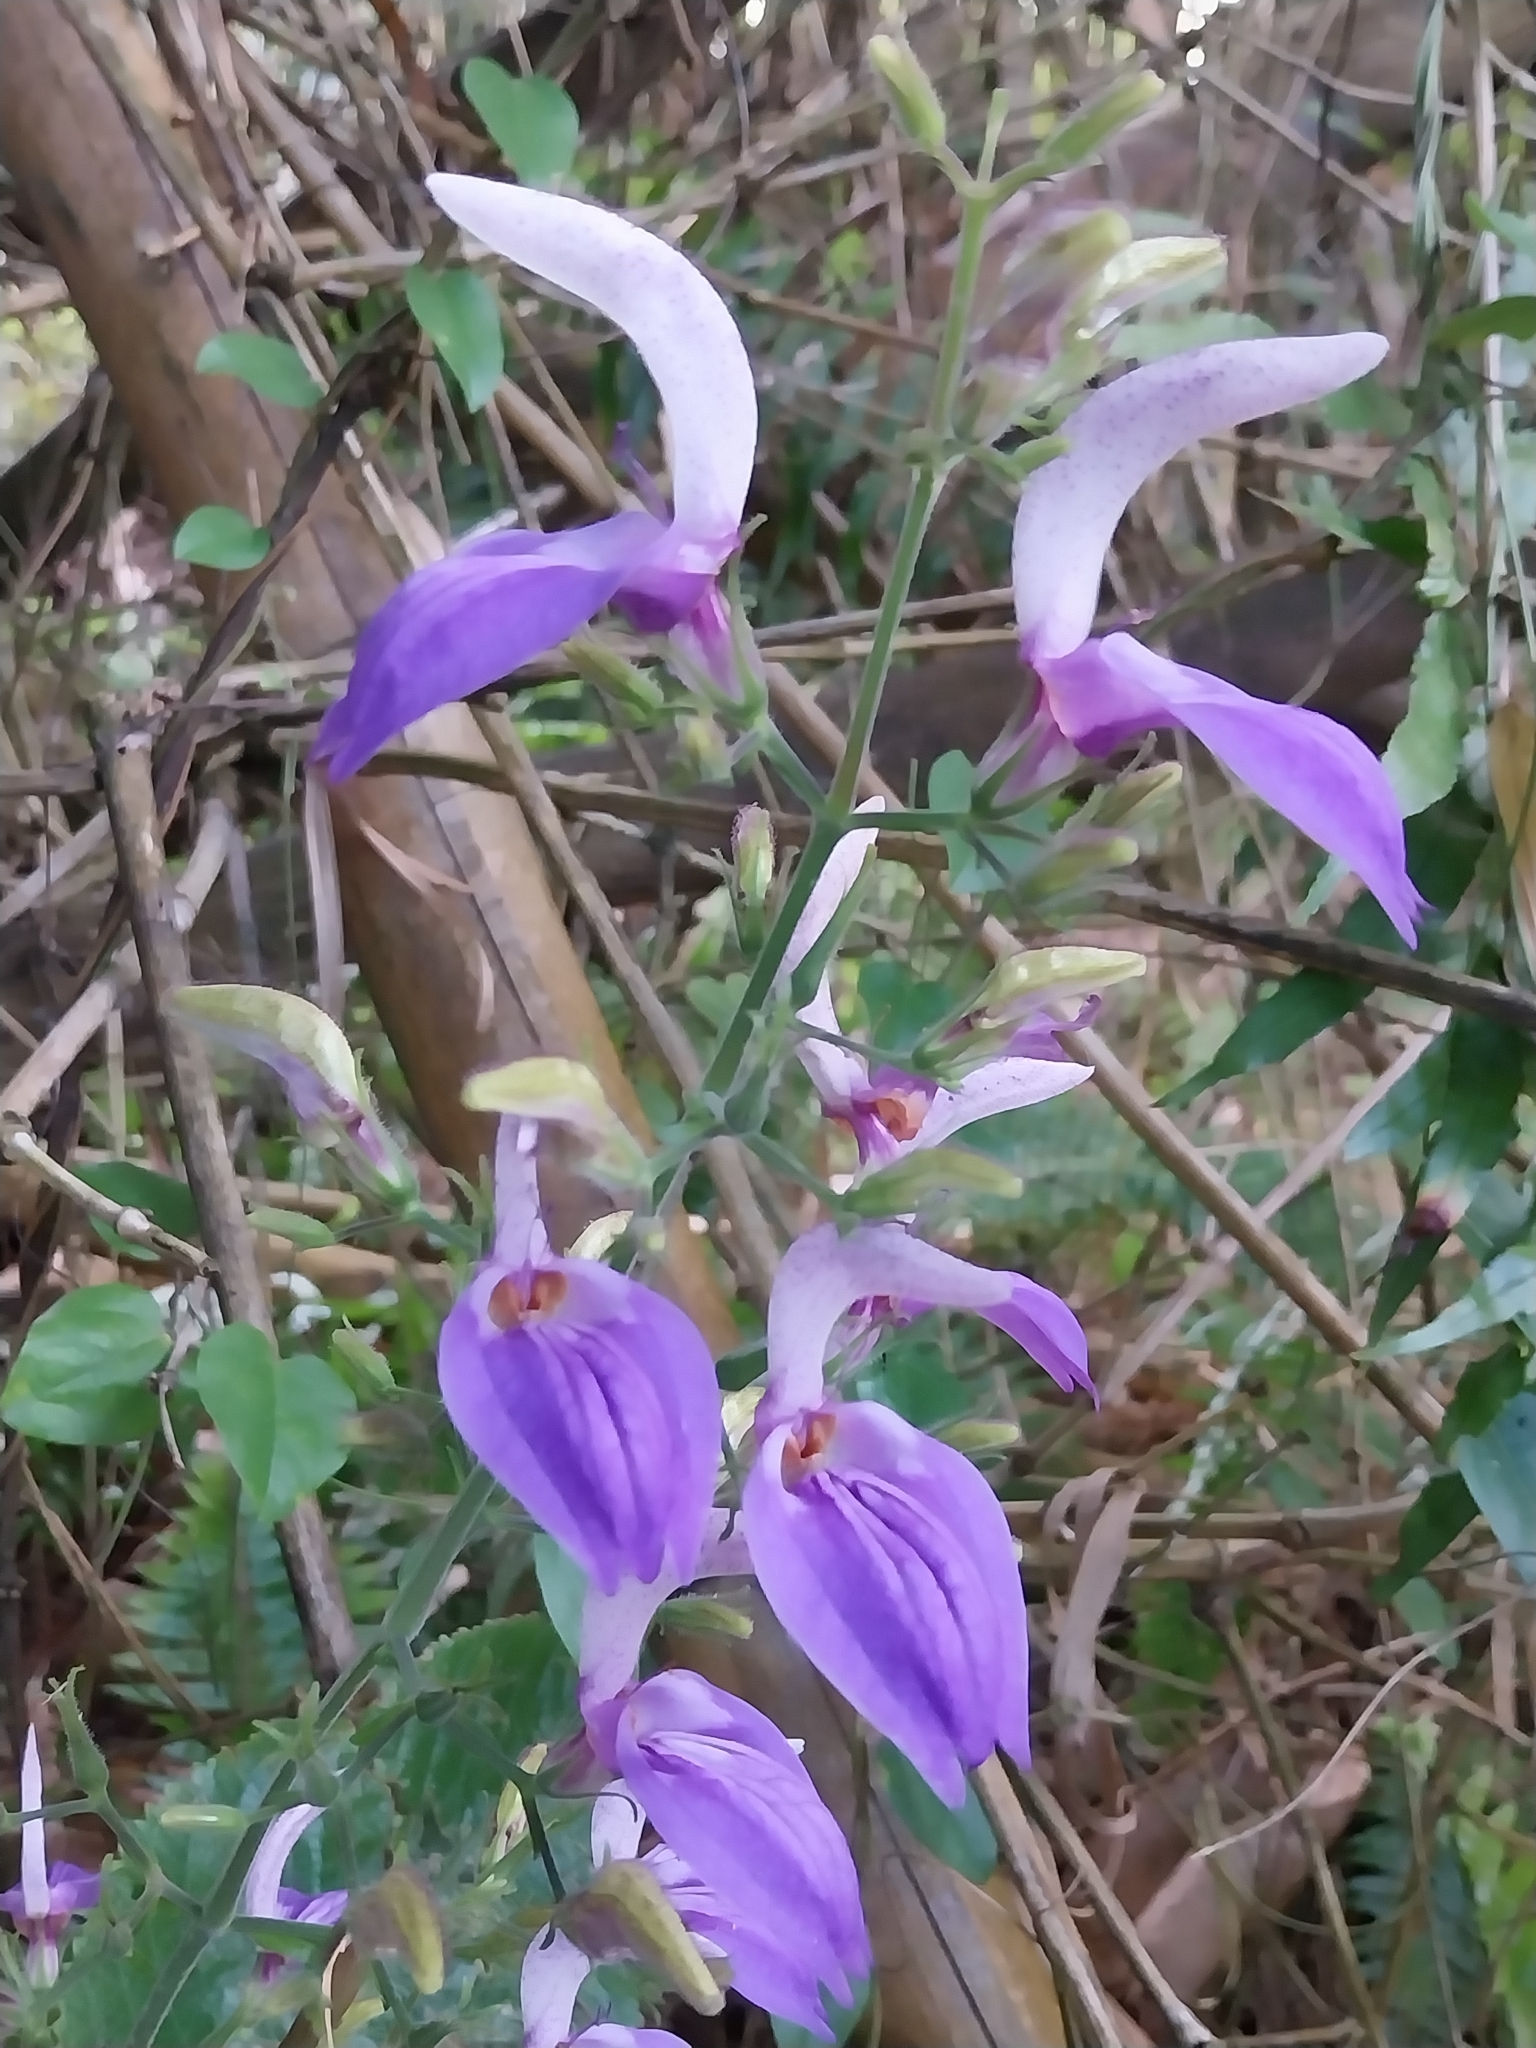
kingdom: Plantae
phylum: Tracheophyta
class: Magnoliopsida
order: Lamiales
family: Acanthaceae
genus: Brillantaisia
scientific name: Brillantaisia owariensis
